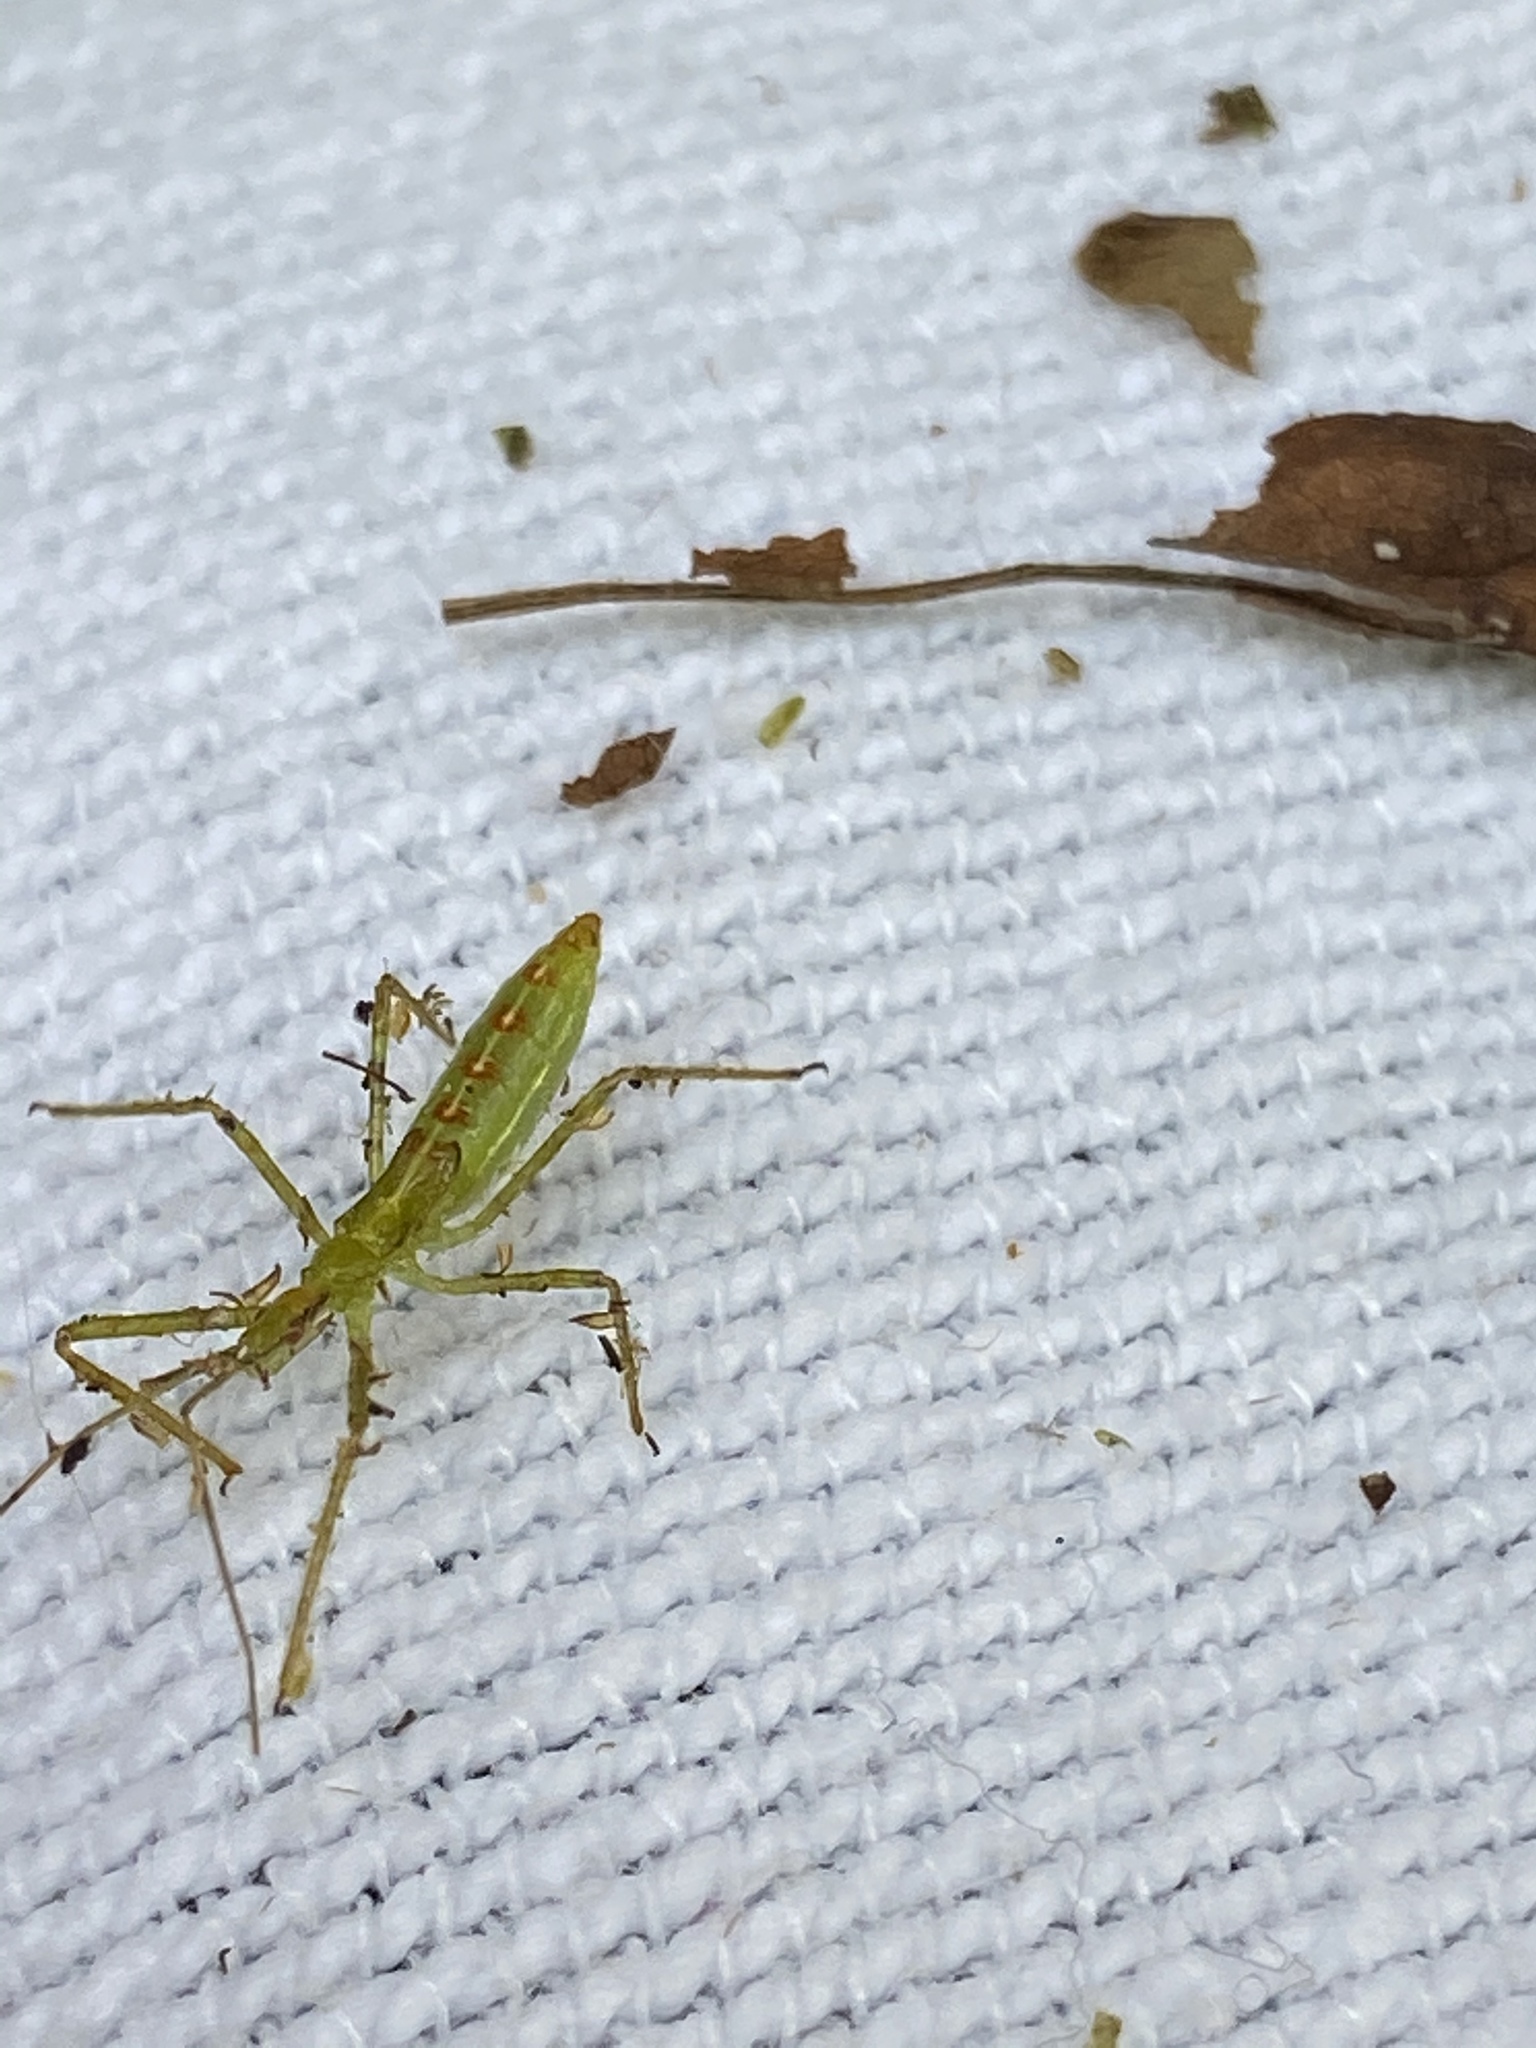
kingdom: Animalia
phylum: Arthropoda
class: Insecta
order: Hemiptera
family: Reduviidae
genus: Zelus
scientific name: Zelus luridus
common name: Pale green assassin bug
